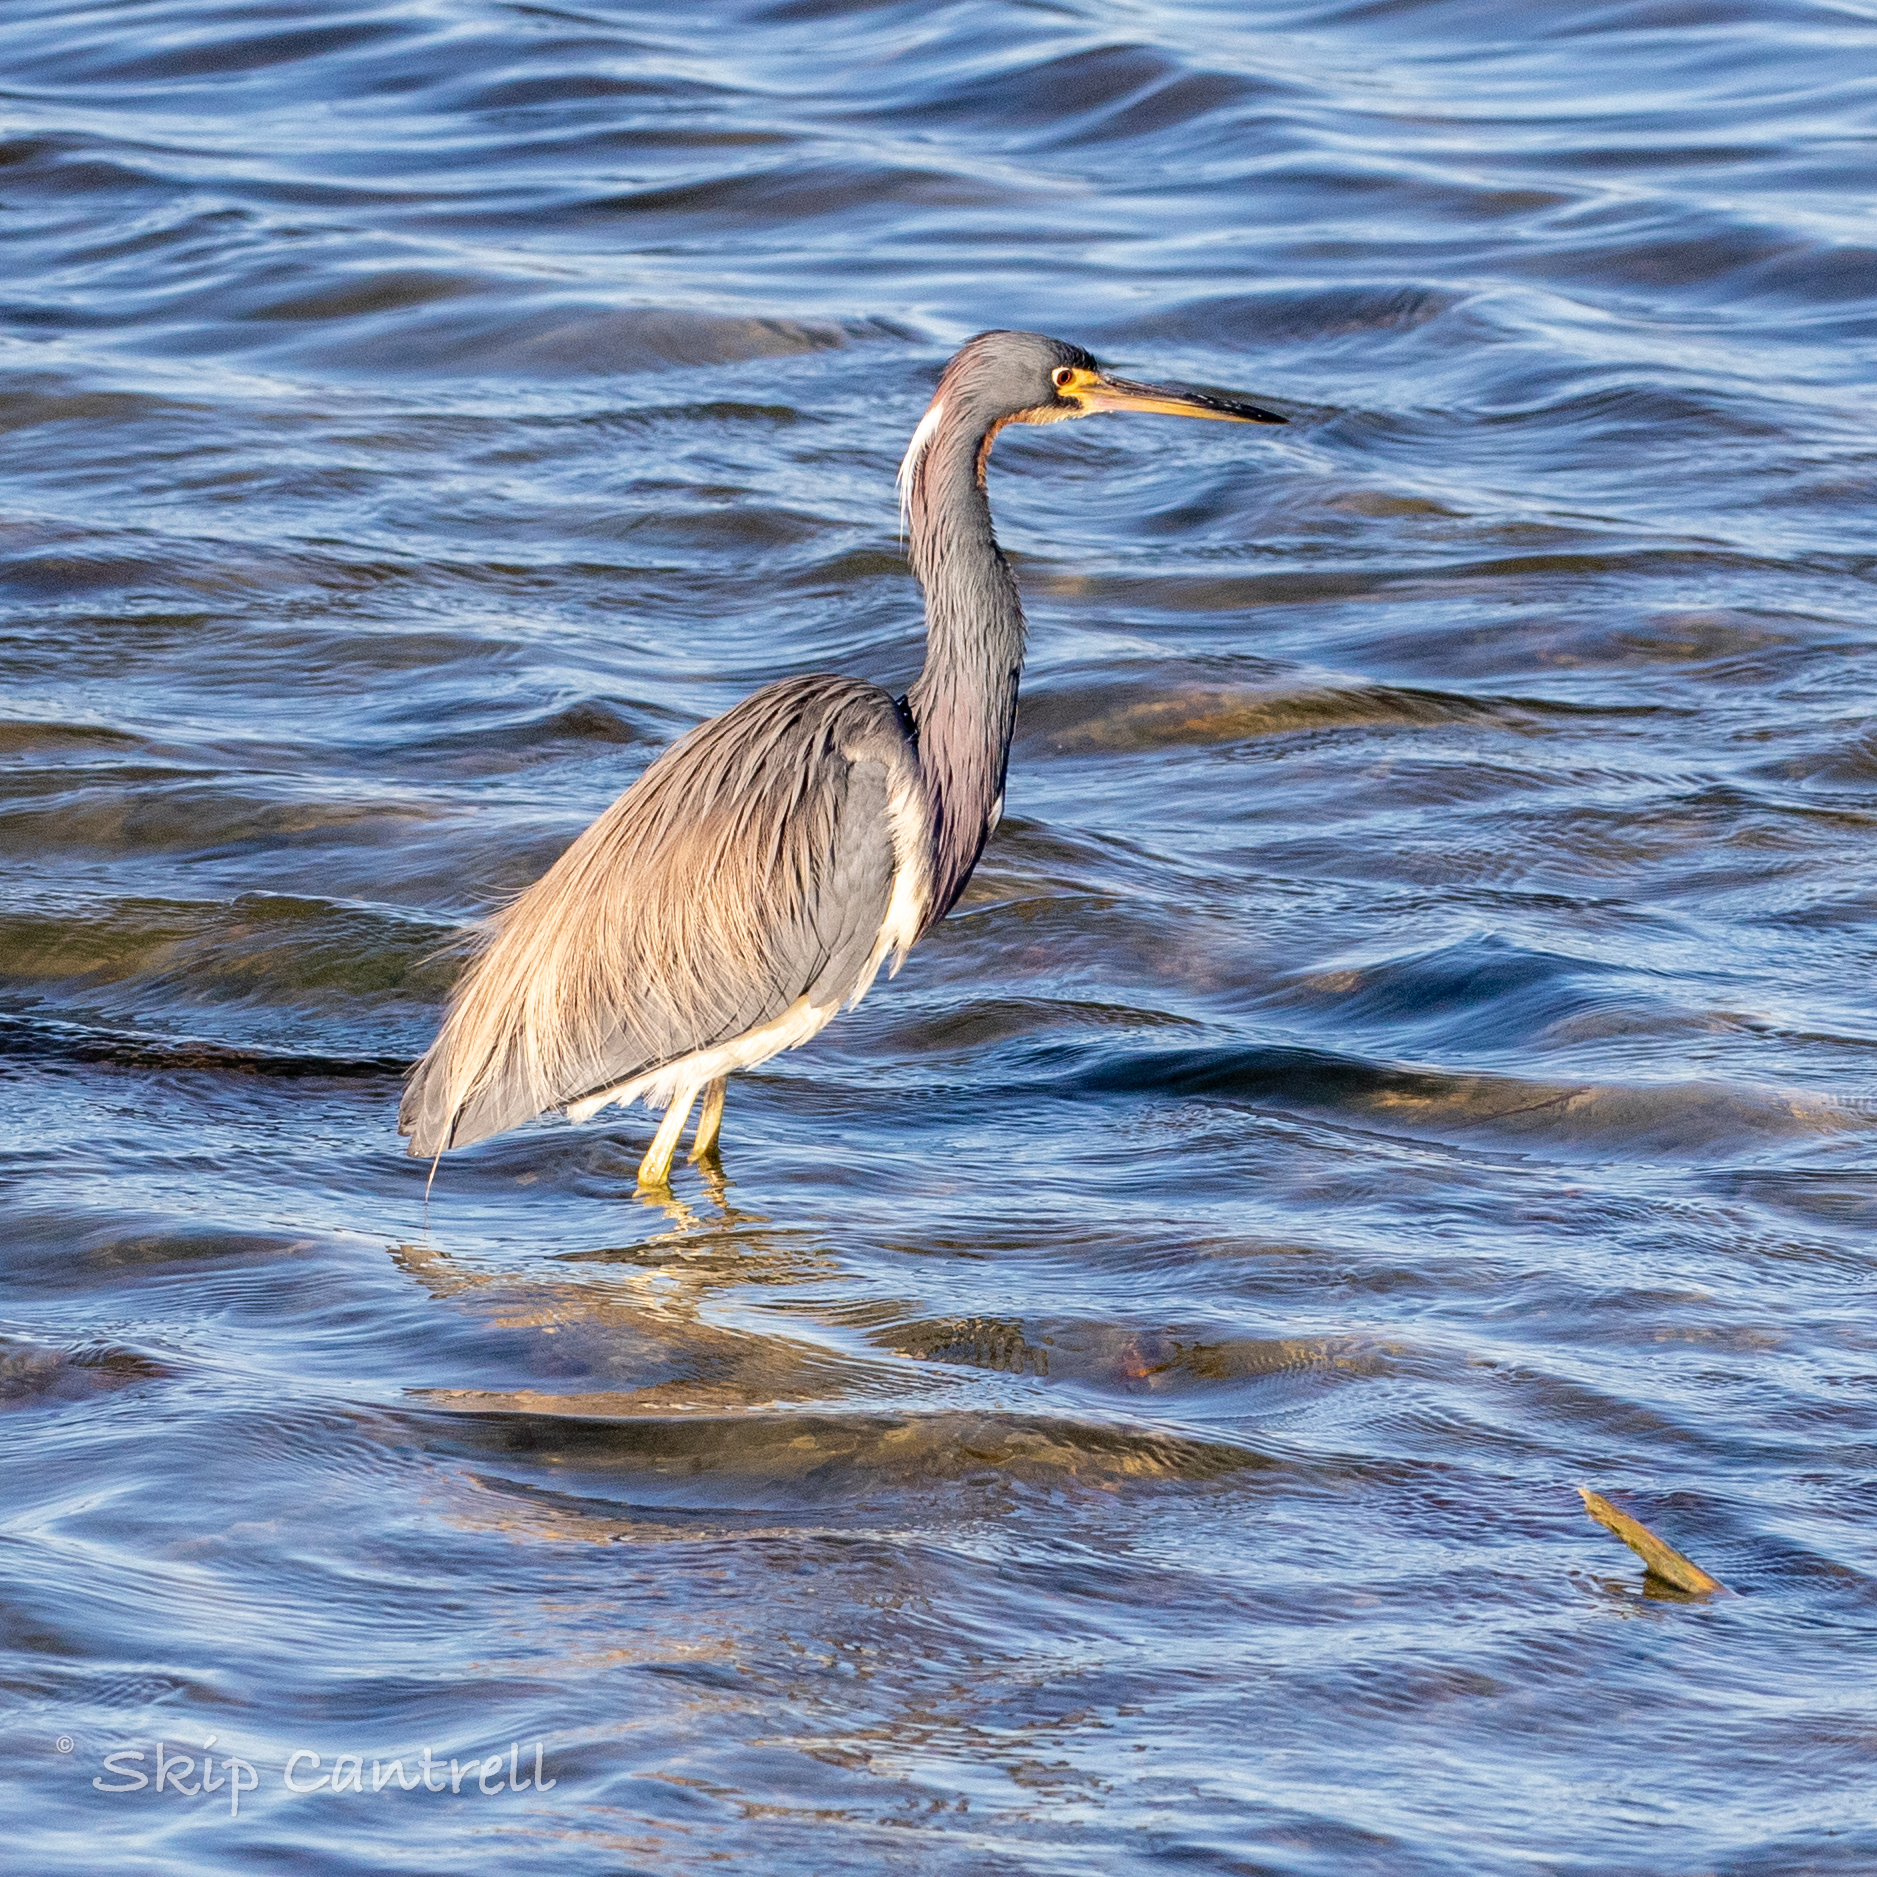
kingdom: Animalia
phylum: Chordata
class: Aves
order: Pelecaniformes
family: Ardeidae
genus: Egretta
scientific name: Egretta tricolor
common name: Tricolored heron
